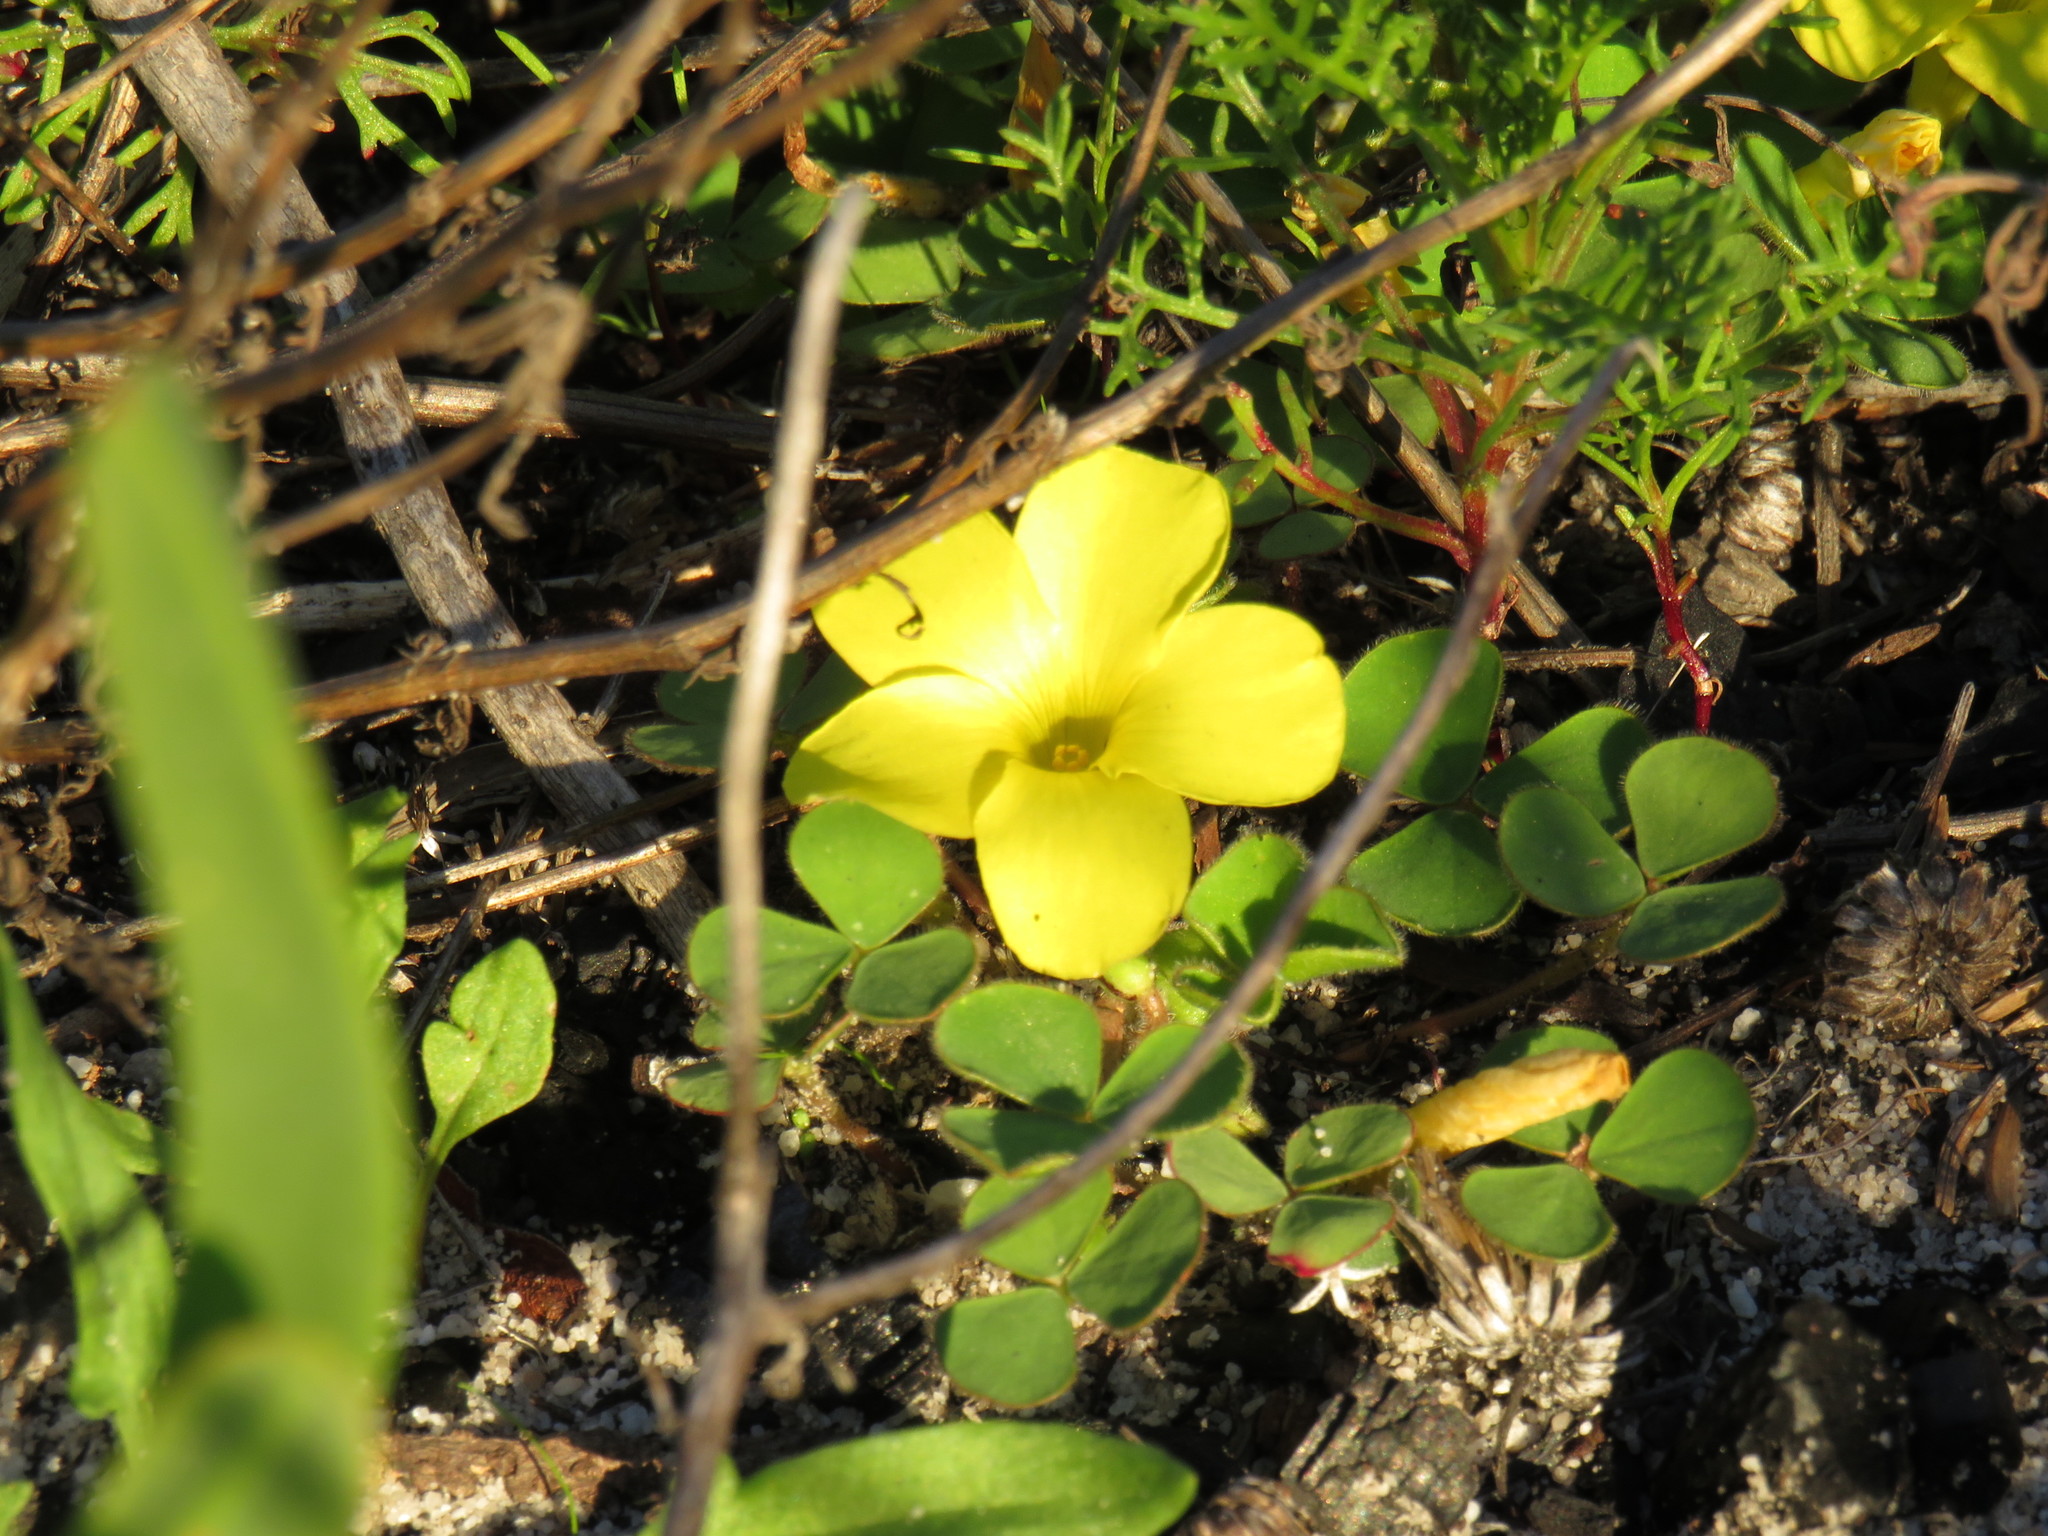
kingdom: Plantae
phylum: Tracheophyta
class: Magnoliopsida
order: Oxalidales
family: Oxalidaceae
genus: Oxalis
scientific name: Oxalis luteola
